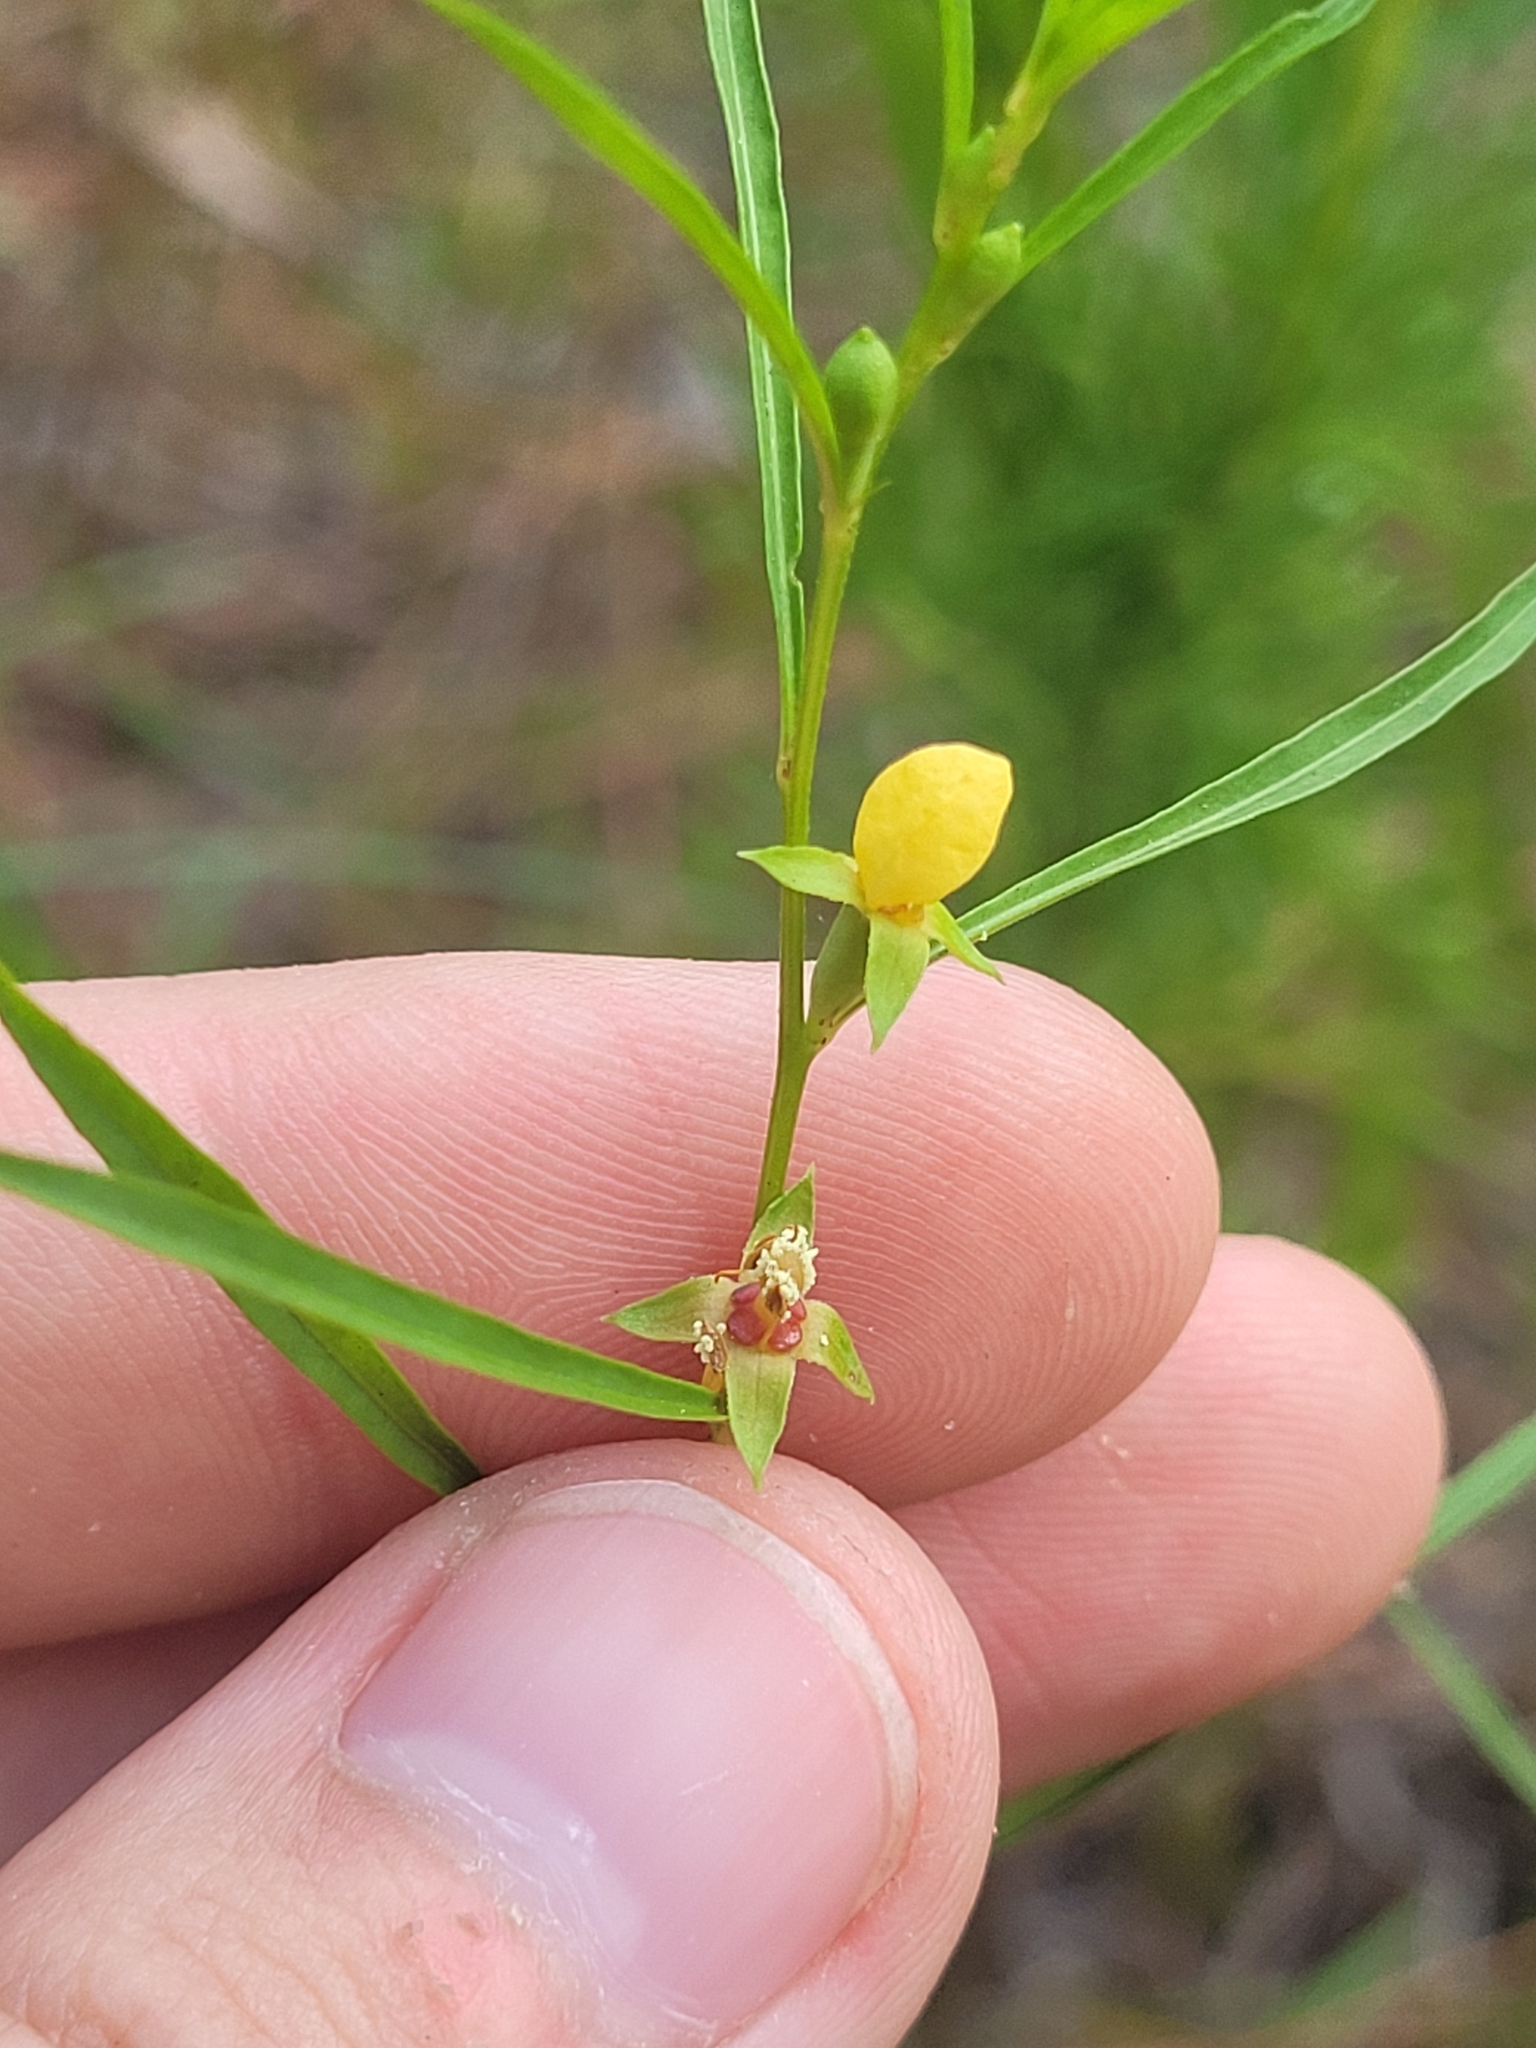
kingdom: Plantae
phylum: Tracheophyta
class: Magnoliopsida
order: Myrtales
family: Onagraceae
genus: Ludwigia
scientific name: Ludwigia linearis
